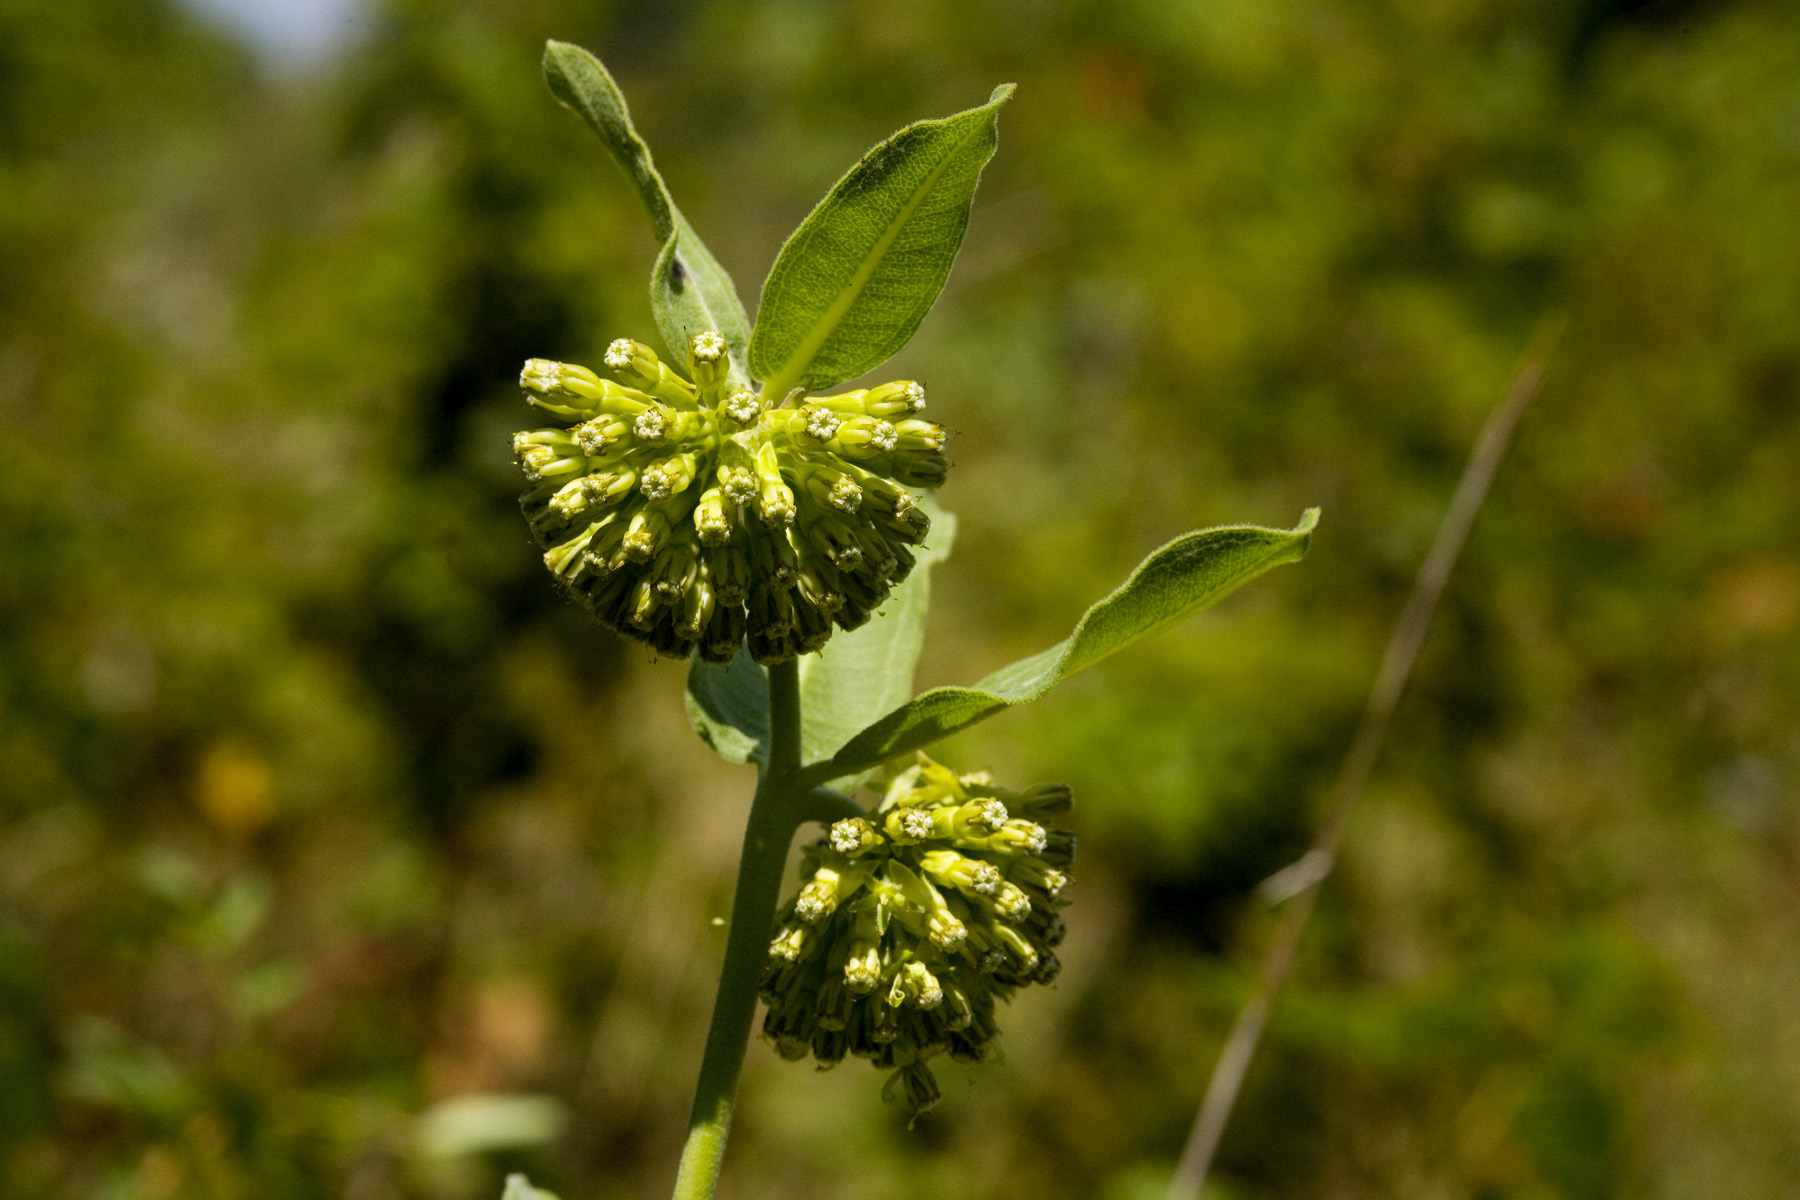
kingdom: Plantae
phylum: Tracheophyta
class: Magnoliopsida
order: Gentianales
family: Apocynaceae
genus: Asclepias
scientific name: Asclepias viridiflora
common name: Green comet milkweed
